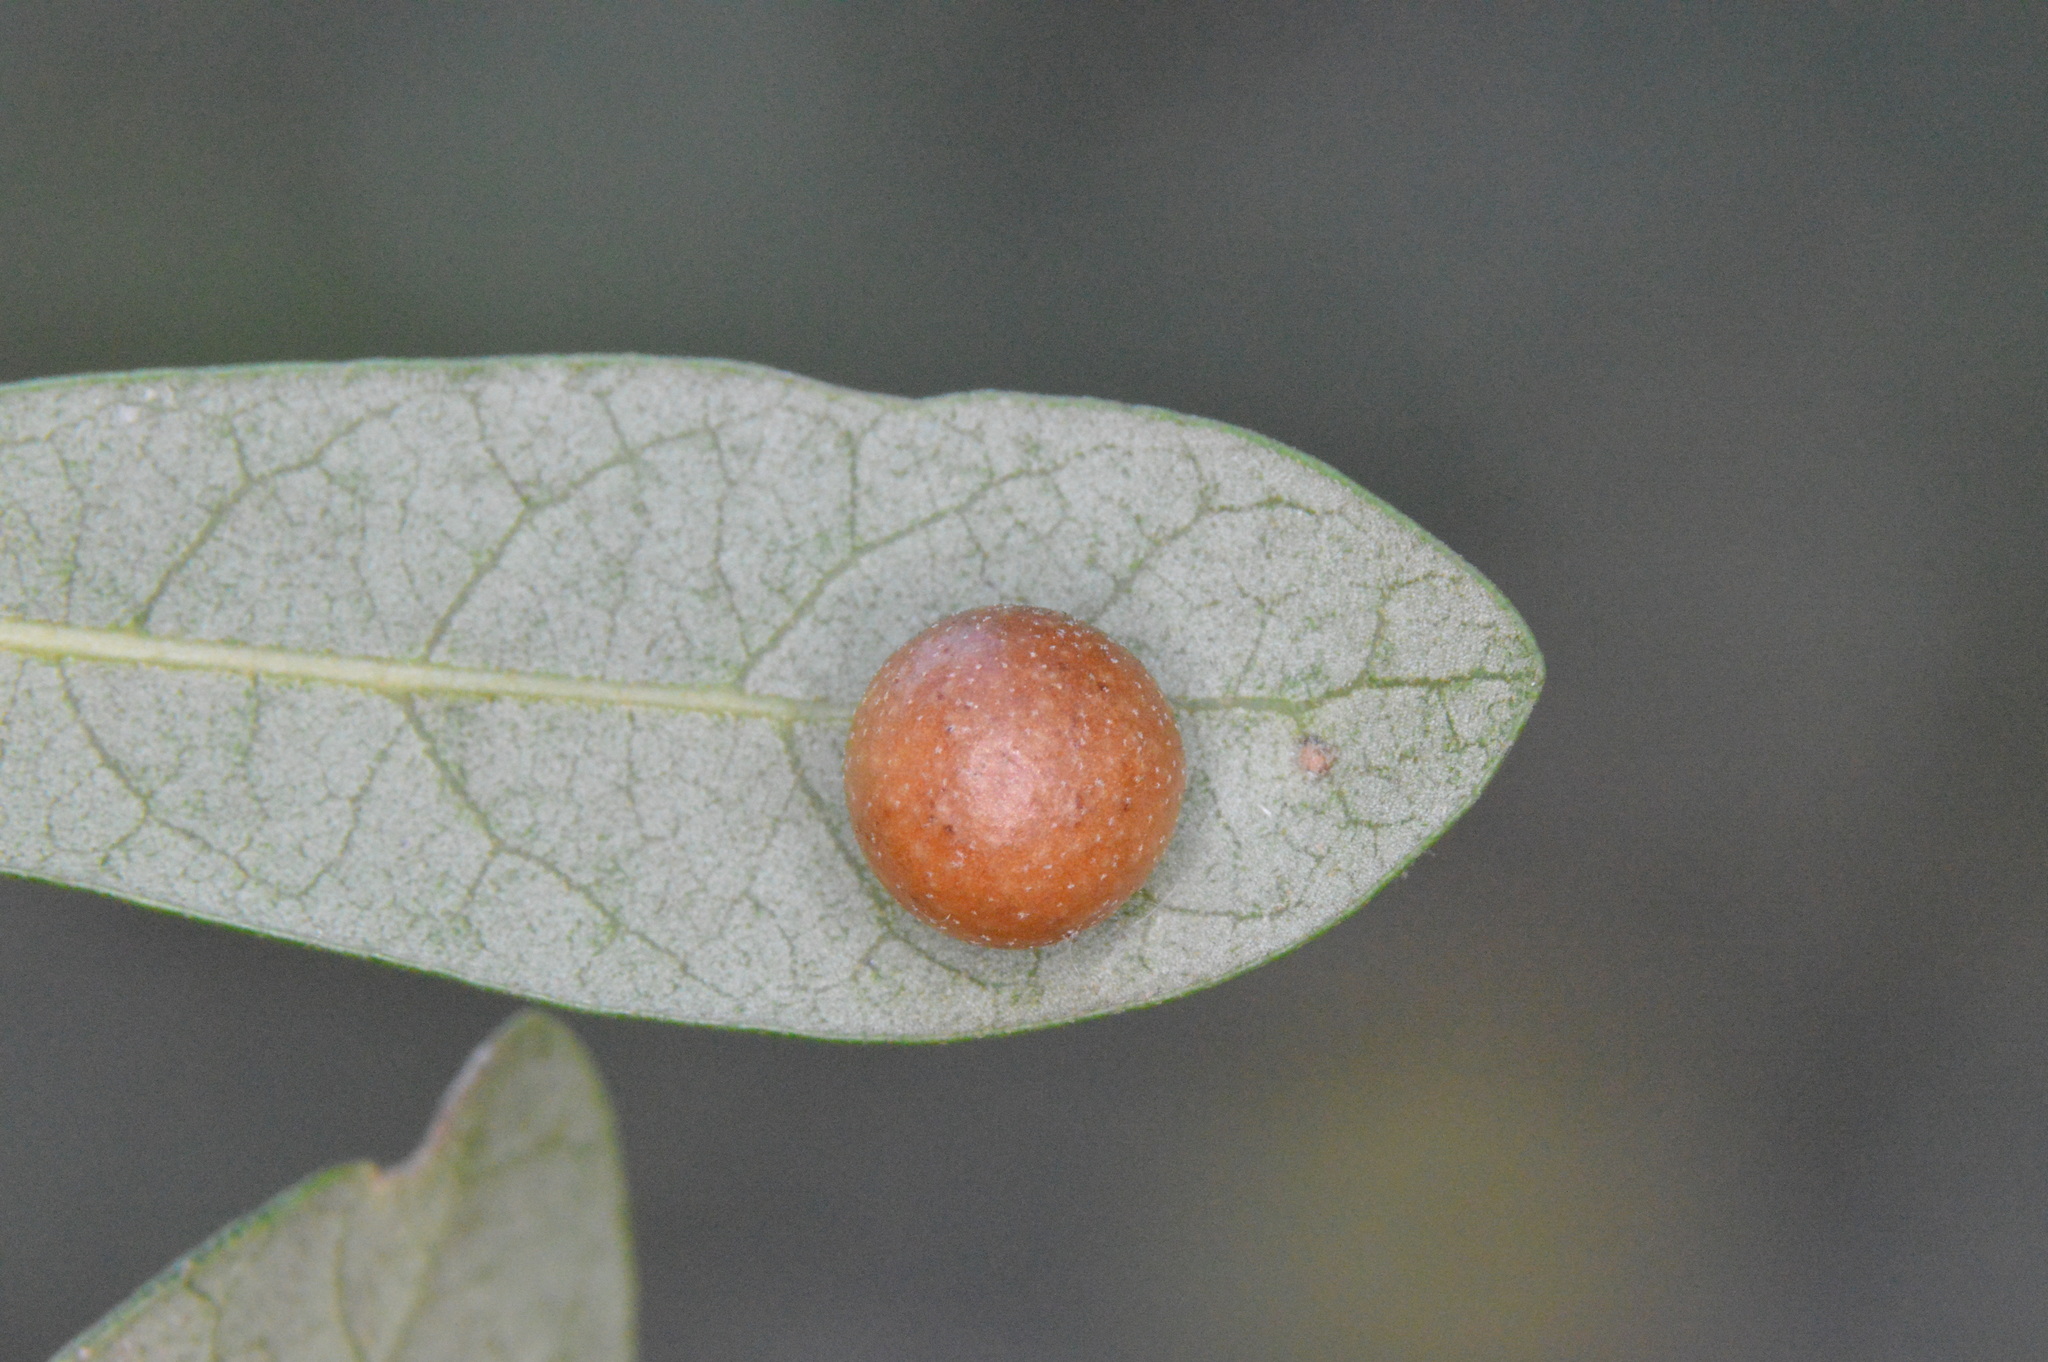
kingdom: Animalia
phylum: Arthropoda
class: Insecta
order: Hymenoptera
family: Cynipidae
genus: Belonocnema
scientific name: Belonocnema kinseyi
